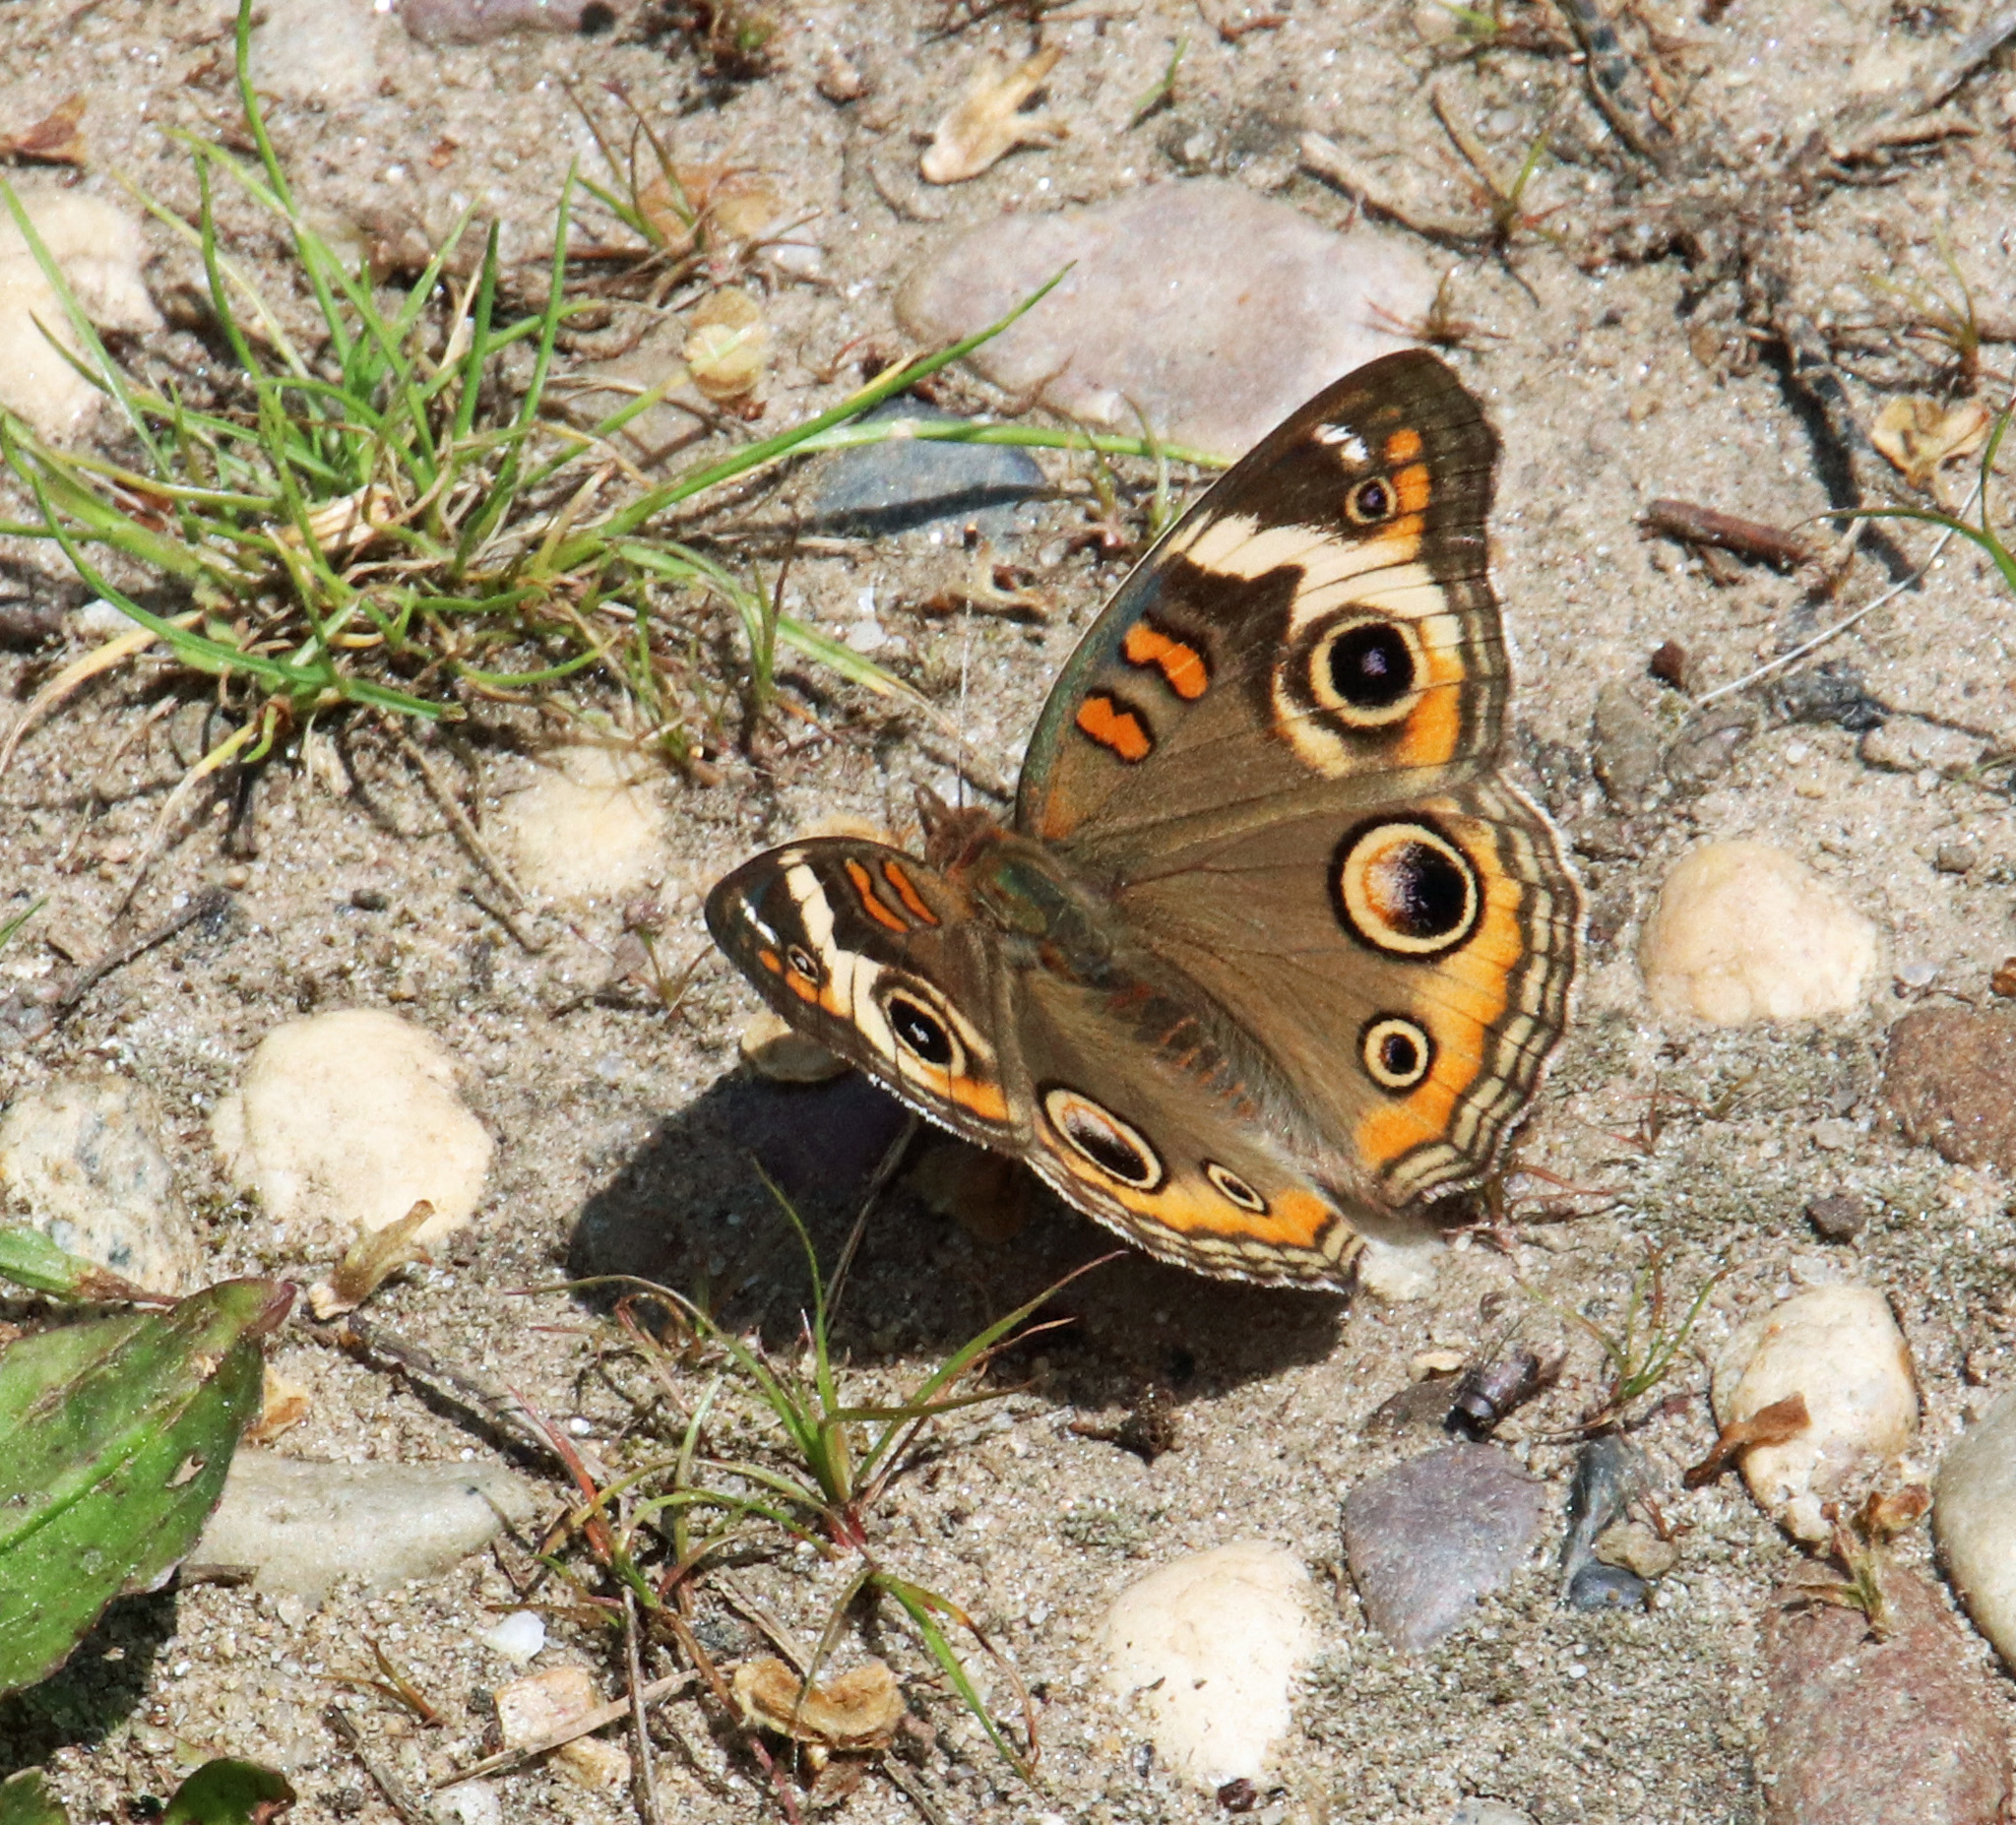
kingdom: Animalia
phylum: Arthropoda
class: Insecta
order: Lepidoptera
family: Nymphalidae
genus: Junonia
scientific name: Junonia coenia
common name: Common buckeye
